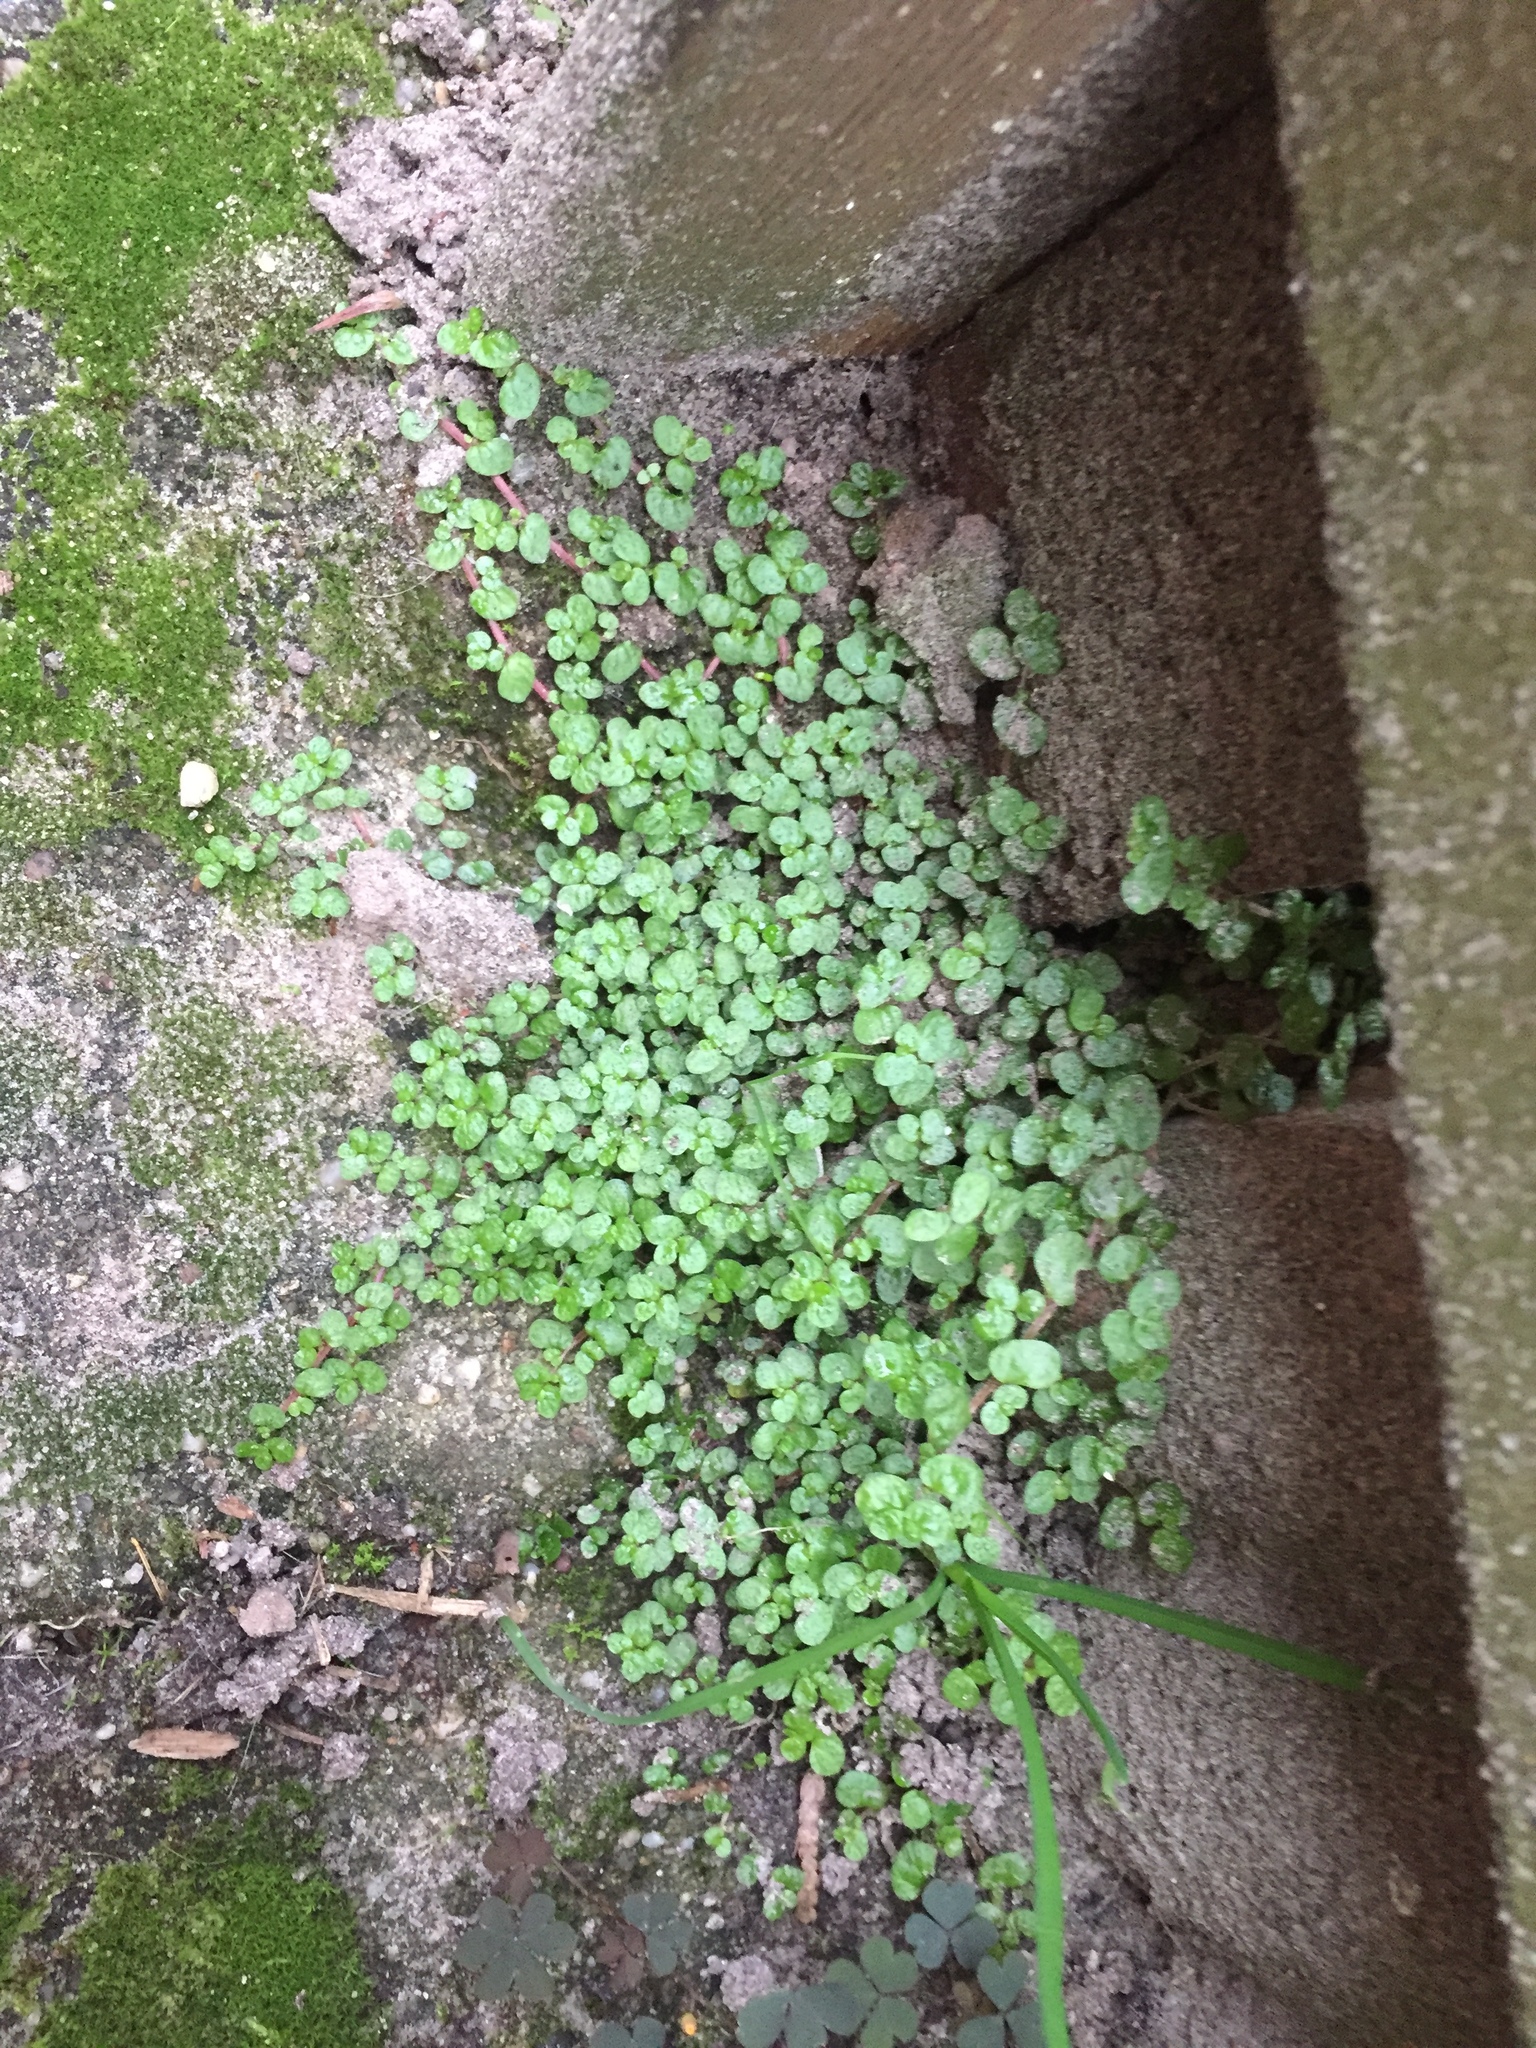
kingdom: Plantae
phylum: Tracheophyta
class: Magnoliopsida
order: Rosales
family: Urticaceae
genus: Soleirolia
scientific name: Soleirolia soleirolii
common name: Mind-your-own-business
